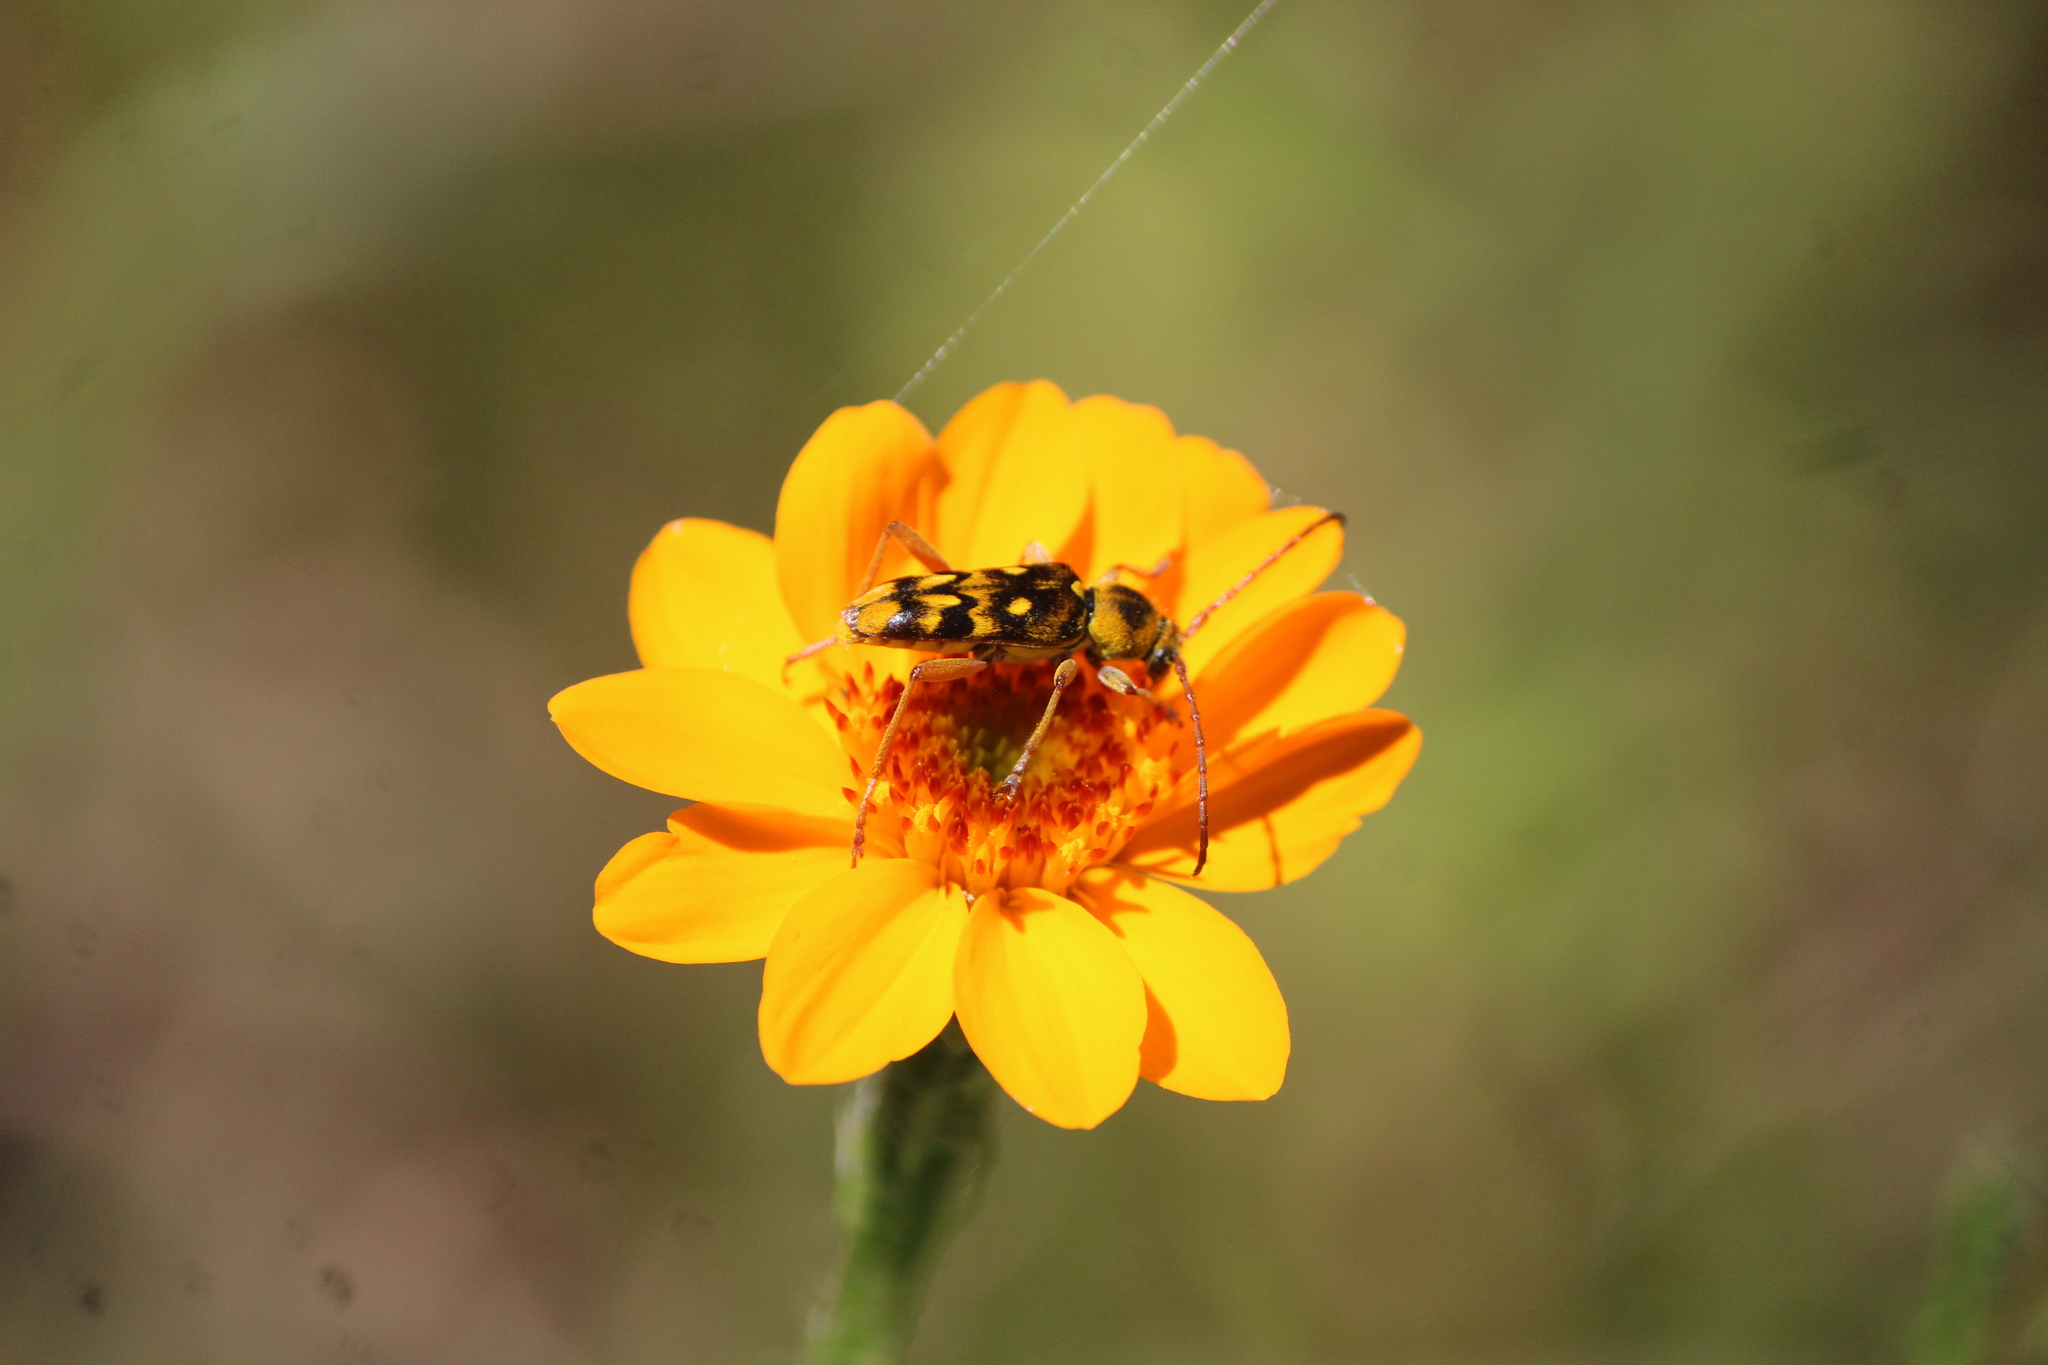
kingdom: Animalia
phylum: Arthropoda
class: Insecta
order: Coleoptera
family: Cerambycidae
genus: Ochraethes
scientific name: Ochraethes sommeri
